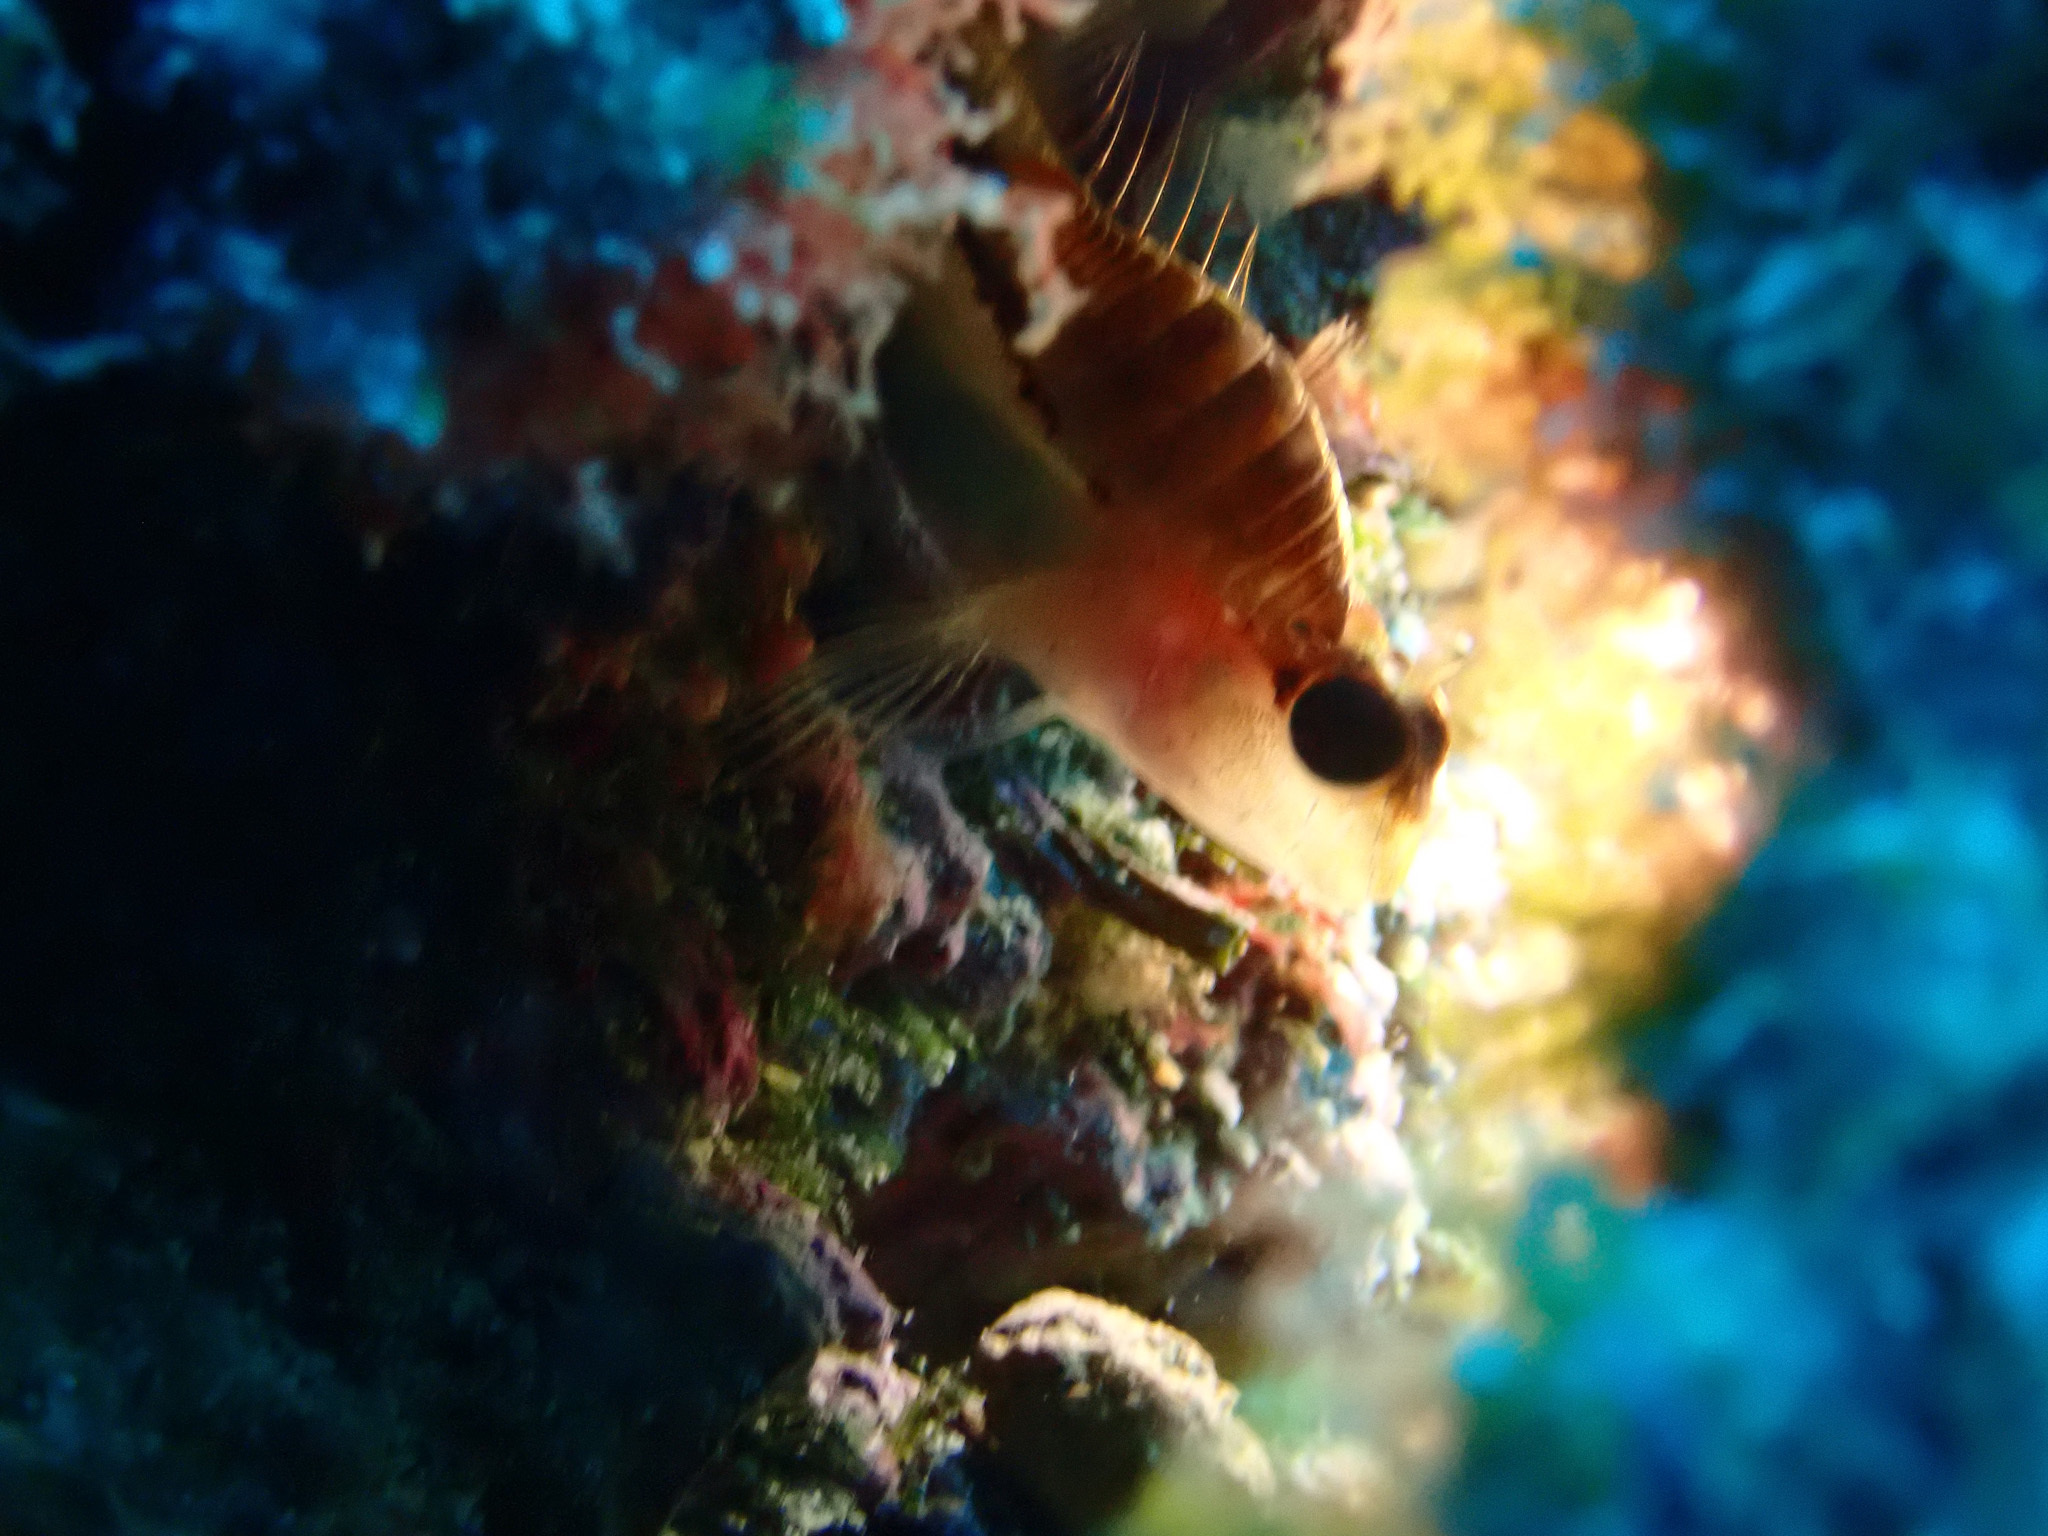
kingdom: Animalia
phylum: Chordata
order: Perciformes
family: Blenniidae
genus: Parablennius
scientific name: Parablennius rouxi
